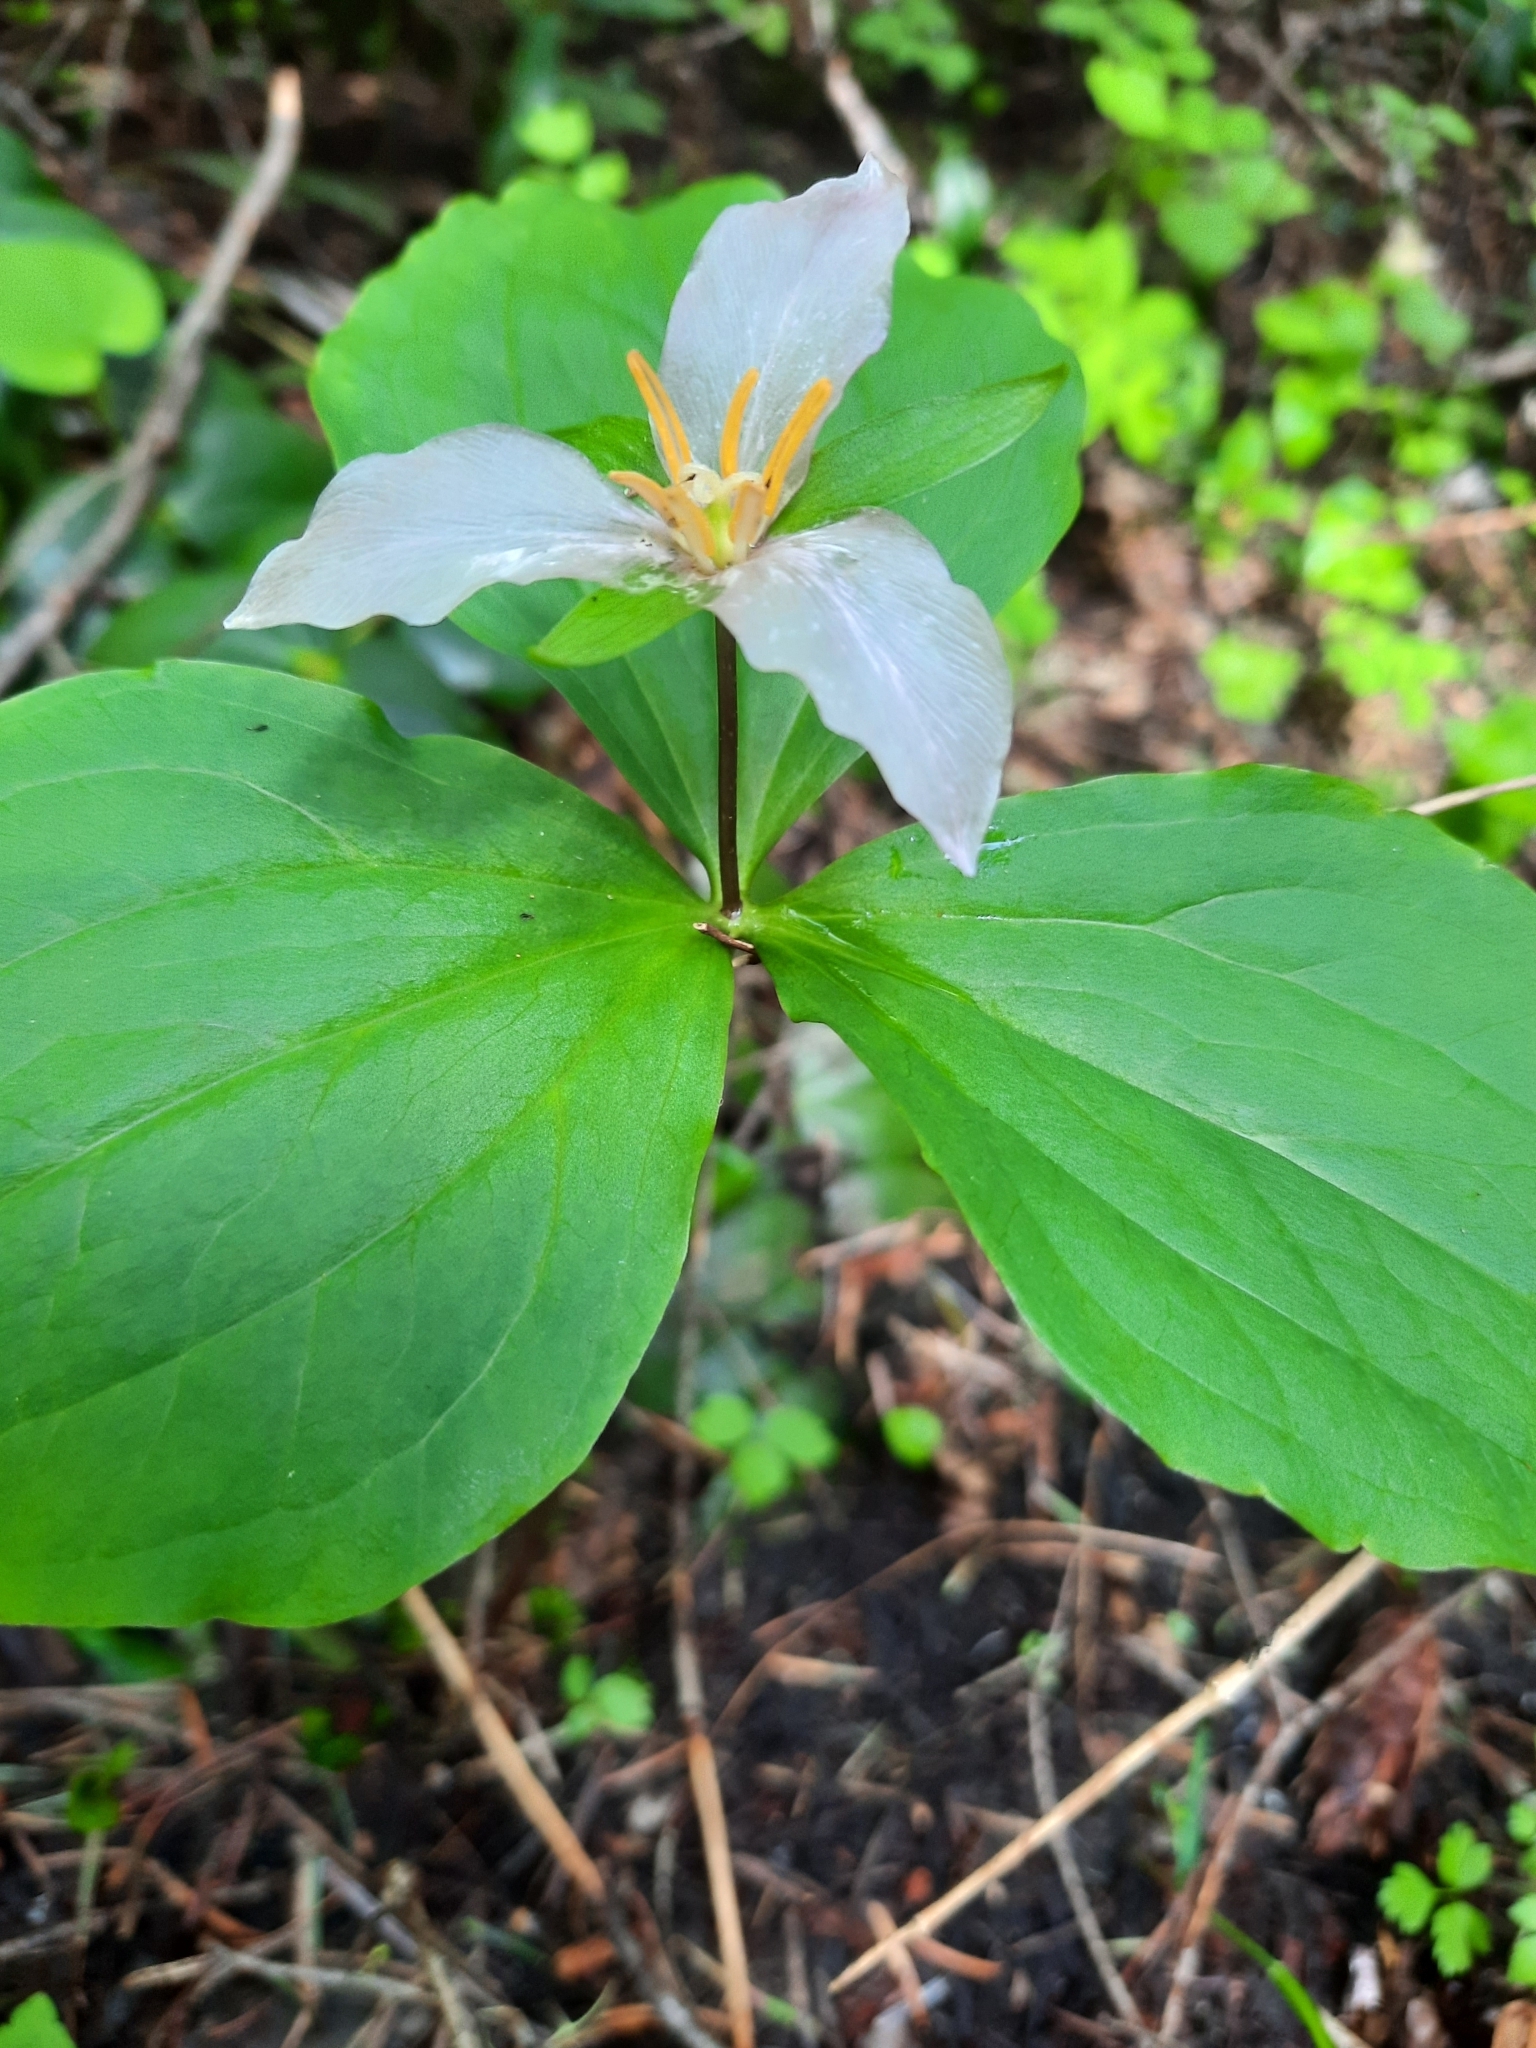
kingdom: Plantae
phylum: Tracheophyta
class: Liliopsida
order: Liliales
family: Melanthiaceae
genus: Trillium
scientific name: Trillium ovatum
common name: Pacific trillium
